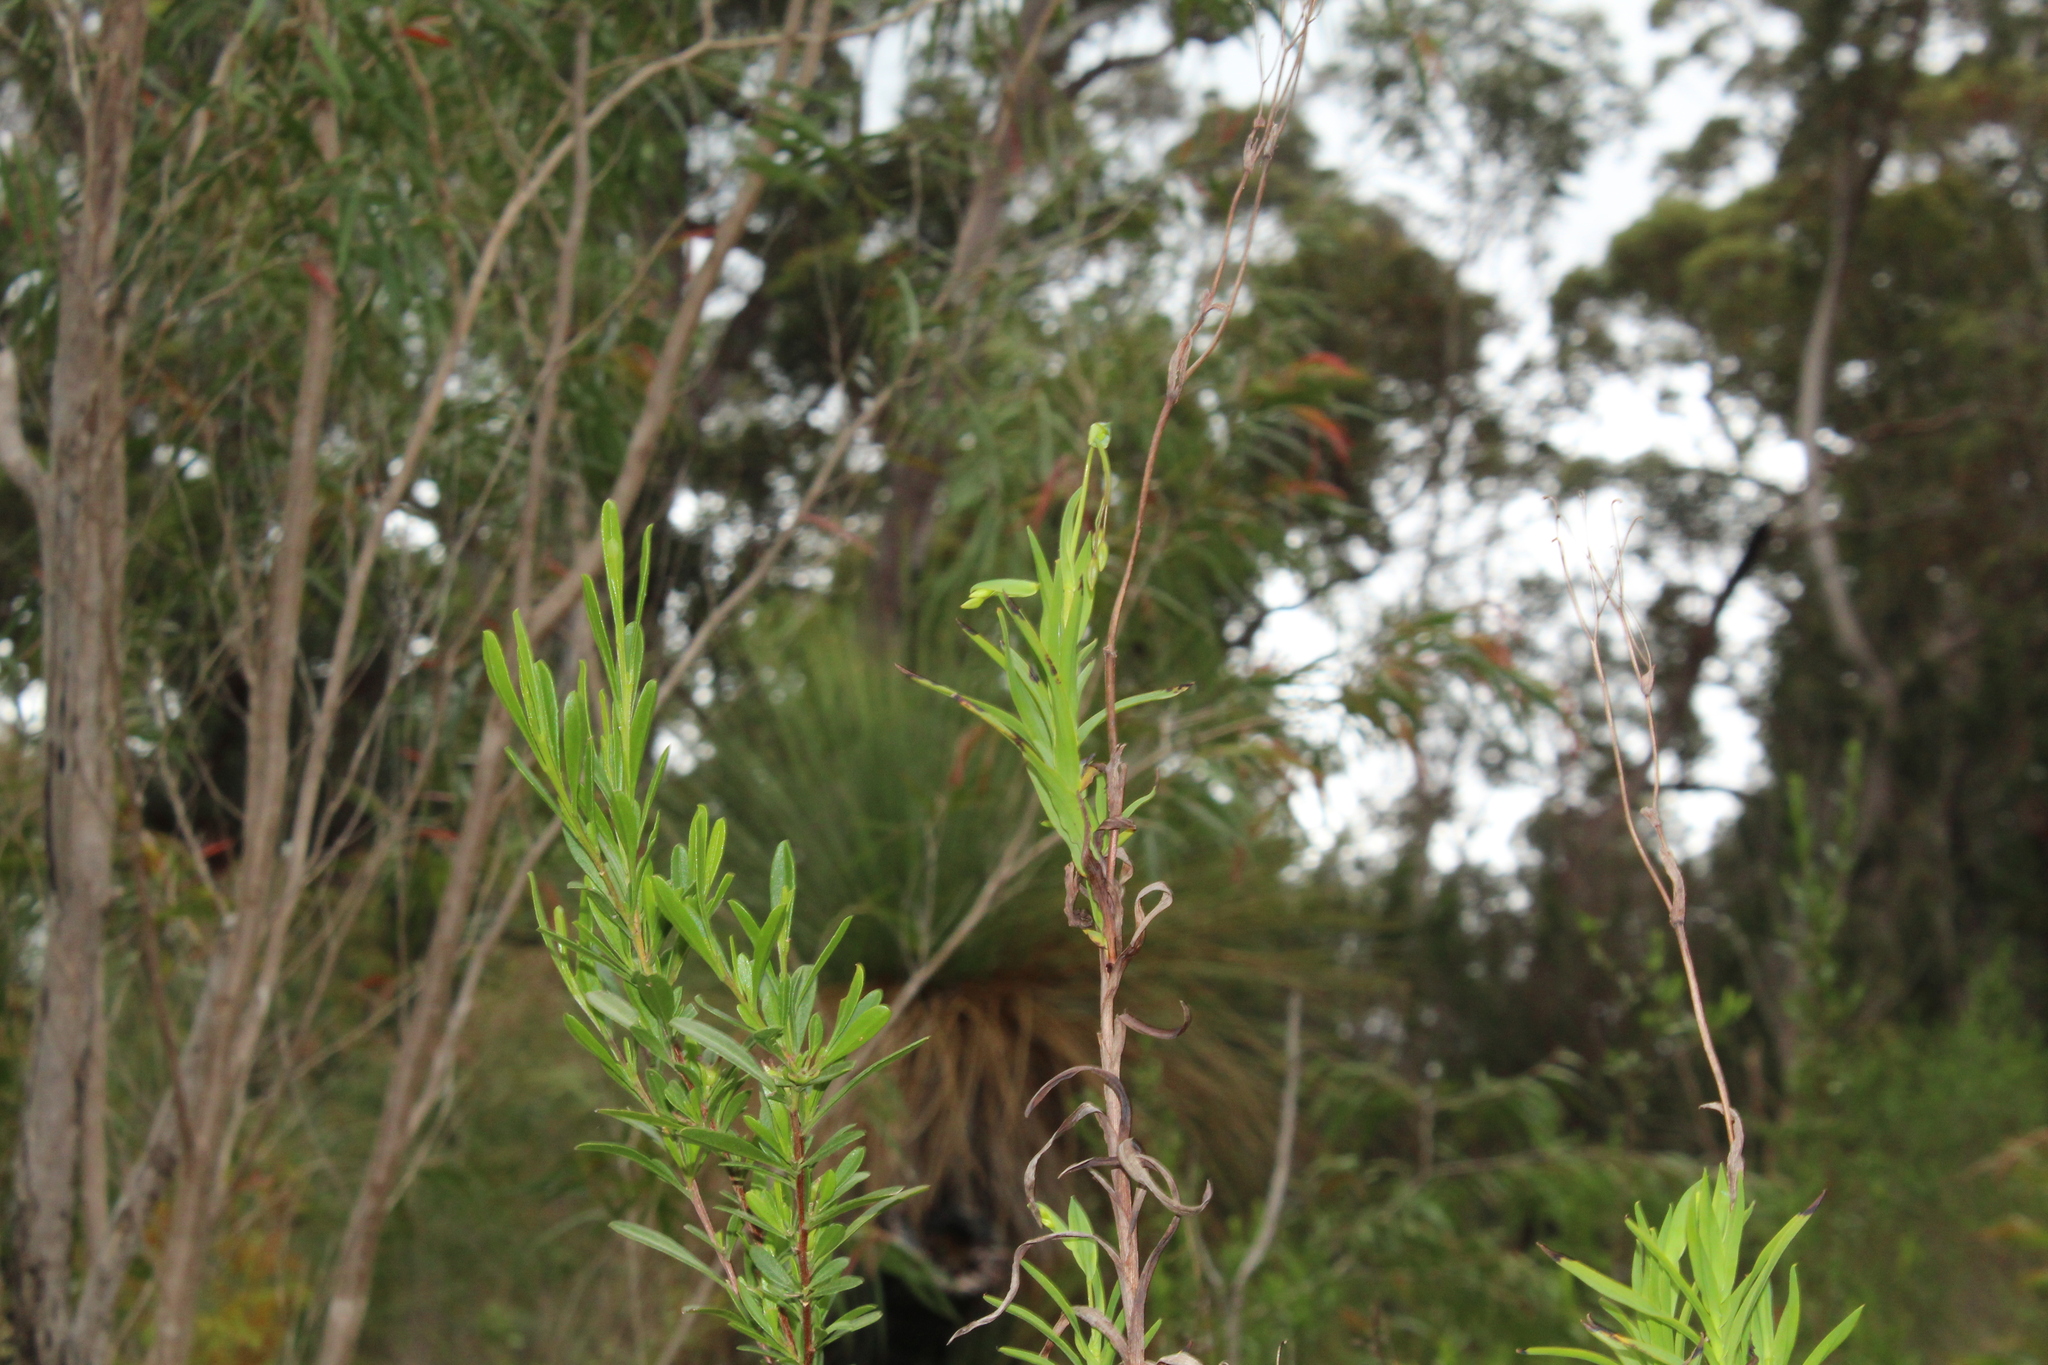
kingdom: Plantae
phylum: Tracheophyta
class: Liliopsida
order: Asparagales
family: Asphodelaceae
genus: Stypandra
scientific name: Stypandra glauca
